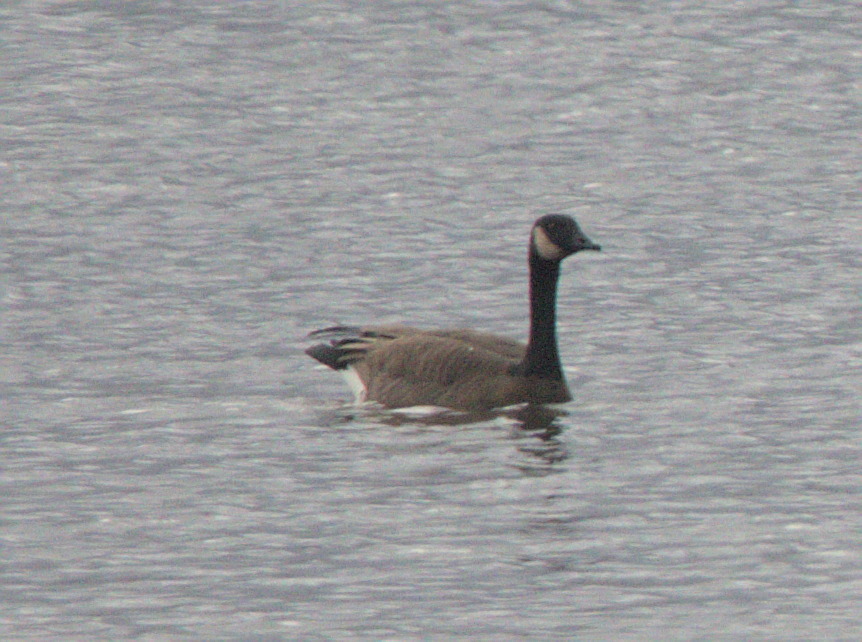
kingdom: Animalia
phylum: Chordata
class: Aves
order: Anseriformes
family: Anatidae
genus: Branta
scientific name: Branta canadensis
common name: Canada goose
